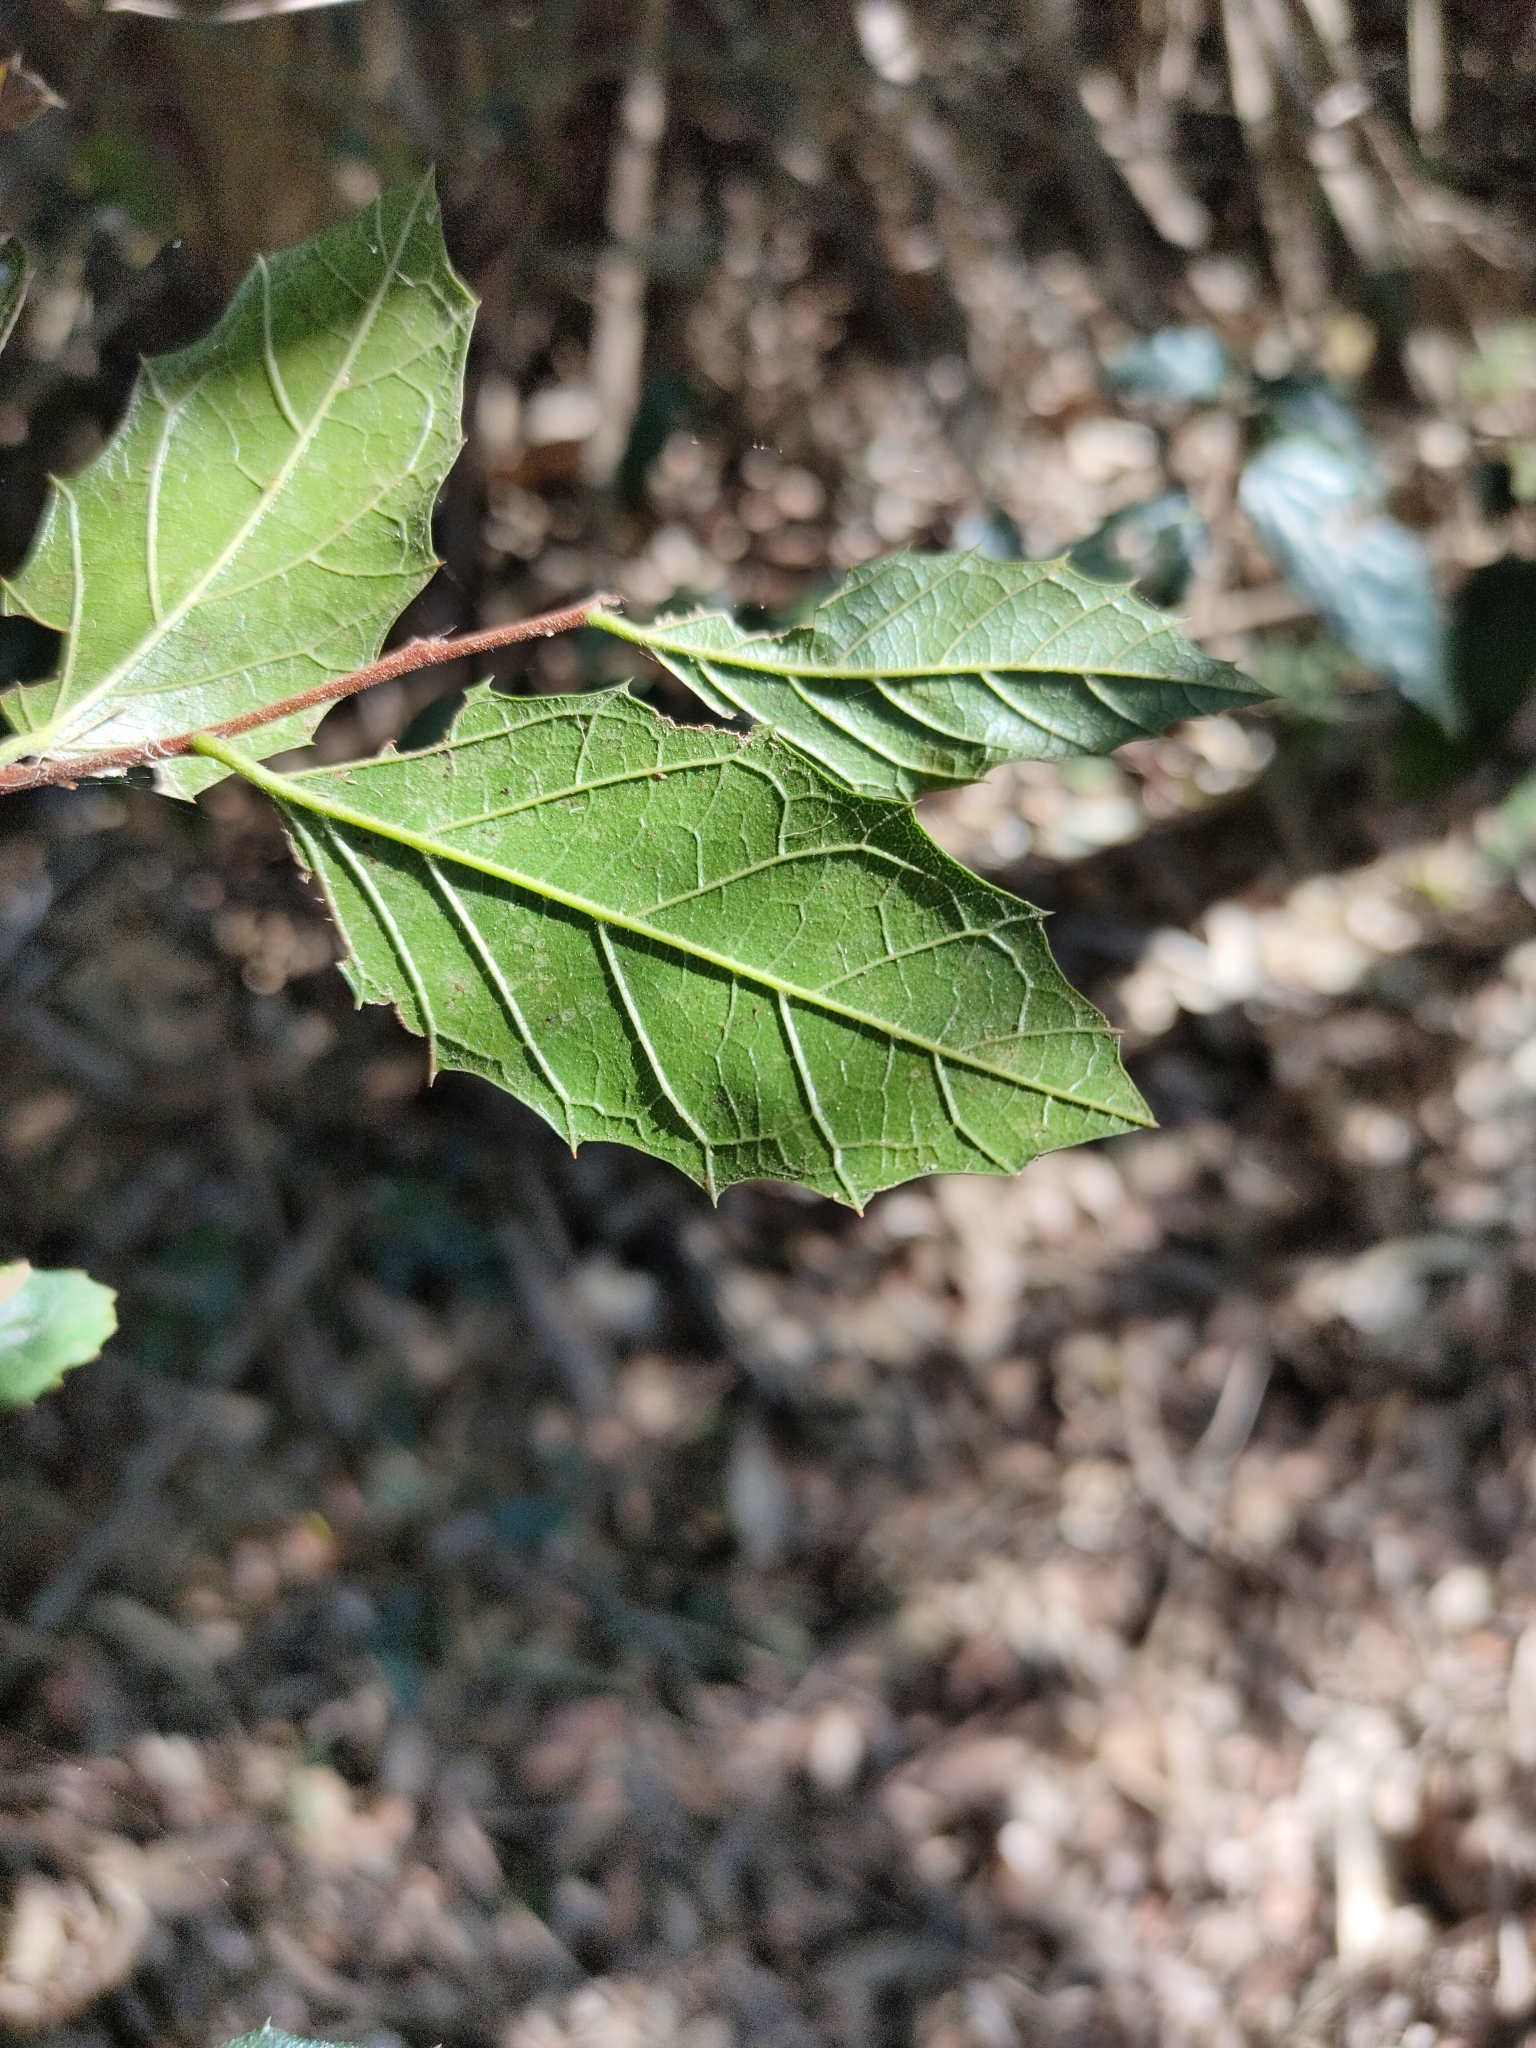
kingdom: Plantae
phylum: Tracheophyta
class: Magnoliopsida
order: Rosales
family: Cannabaceae
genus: Aphananthe
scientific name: Aphananthe philippinensis
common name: Wild holly
